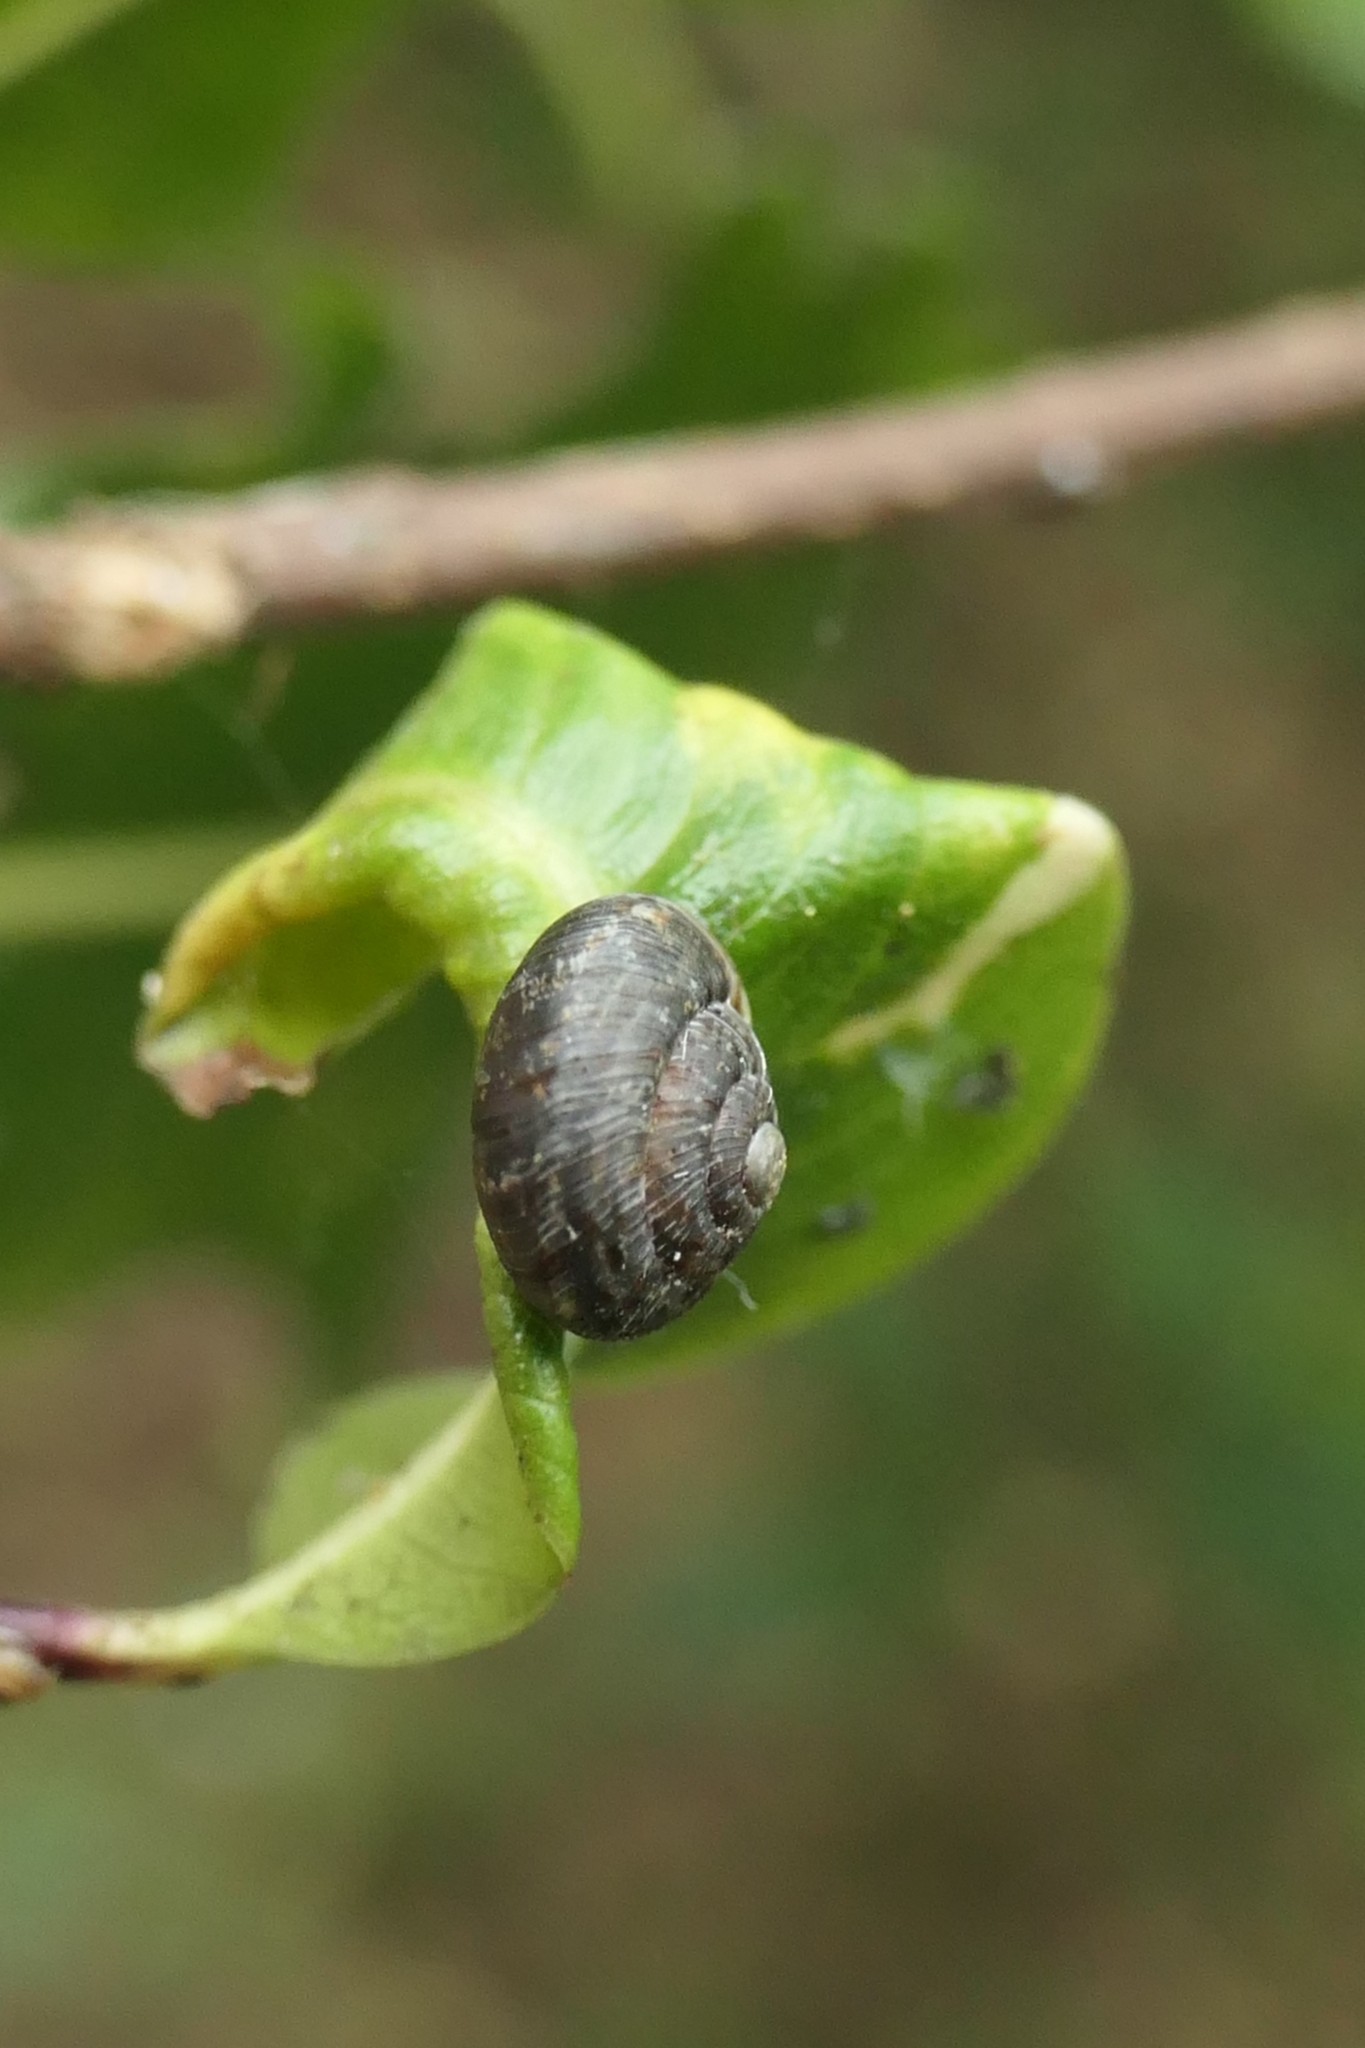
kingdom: Animalia
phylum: Mollusca
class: Gastropoda
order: Stylommatophora
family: Geomitridae
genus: Xeroplexa
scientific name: Xeroplexa intersecta
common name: Wrinkled snail
